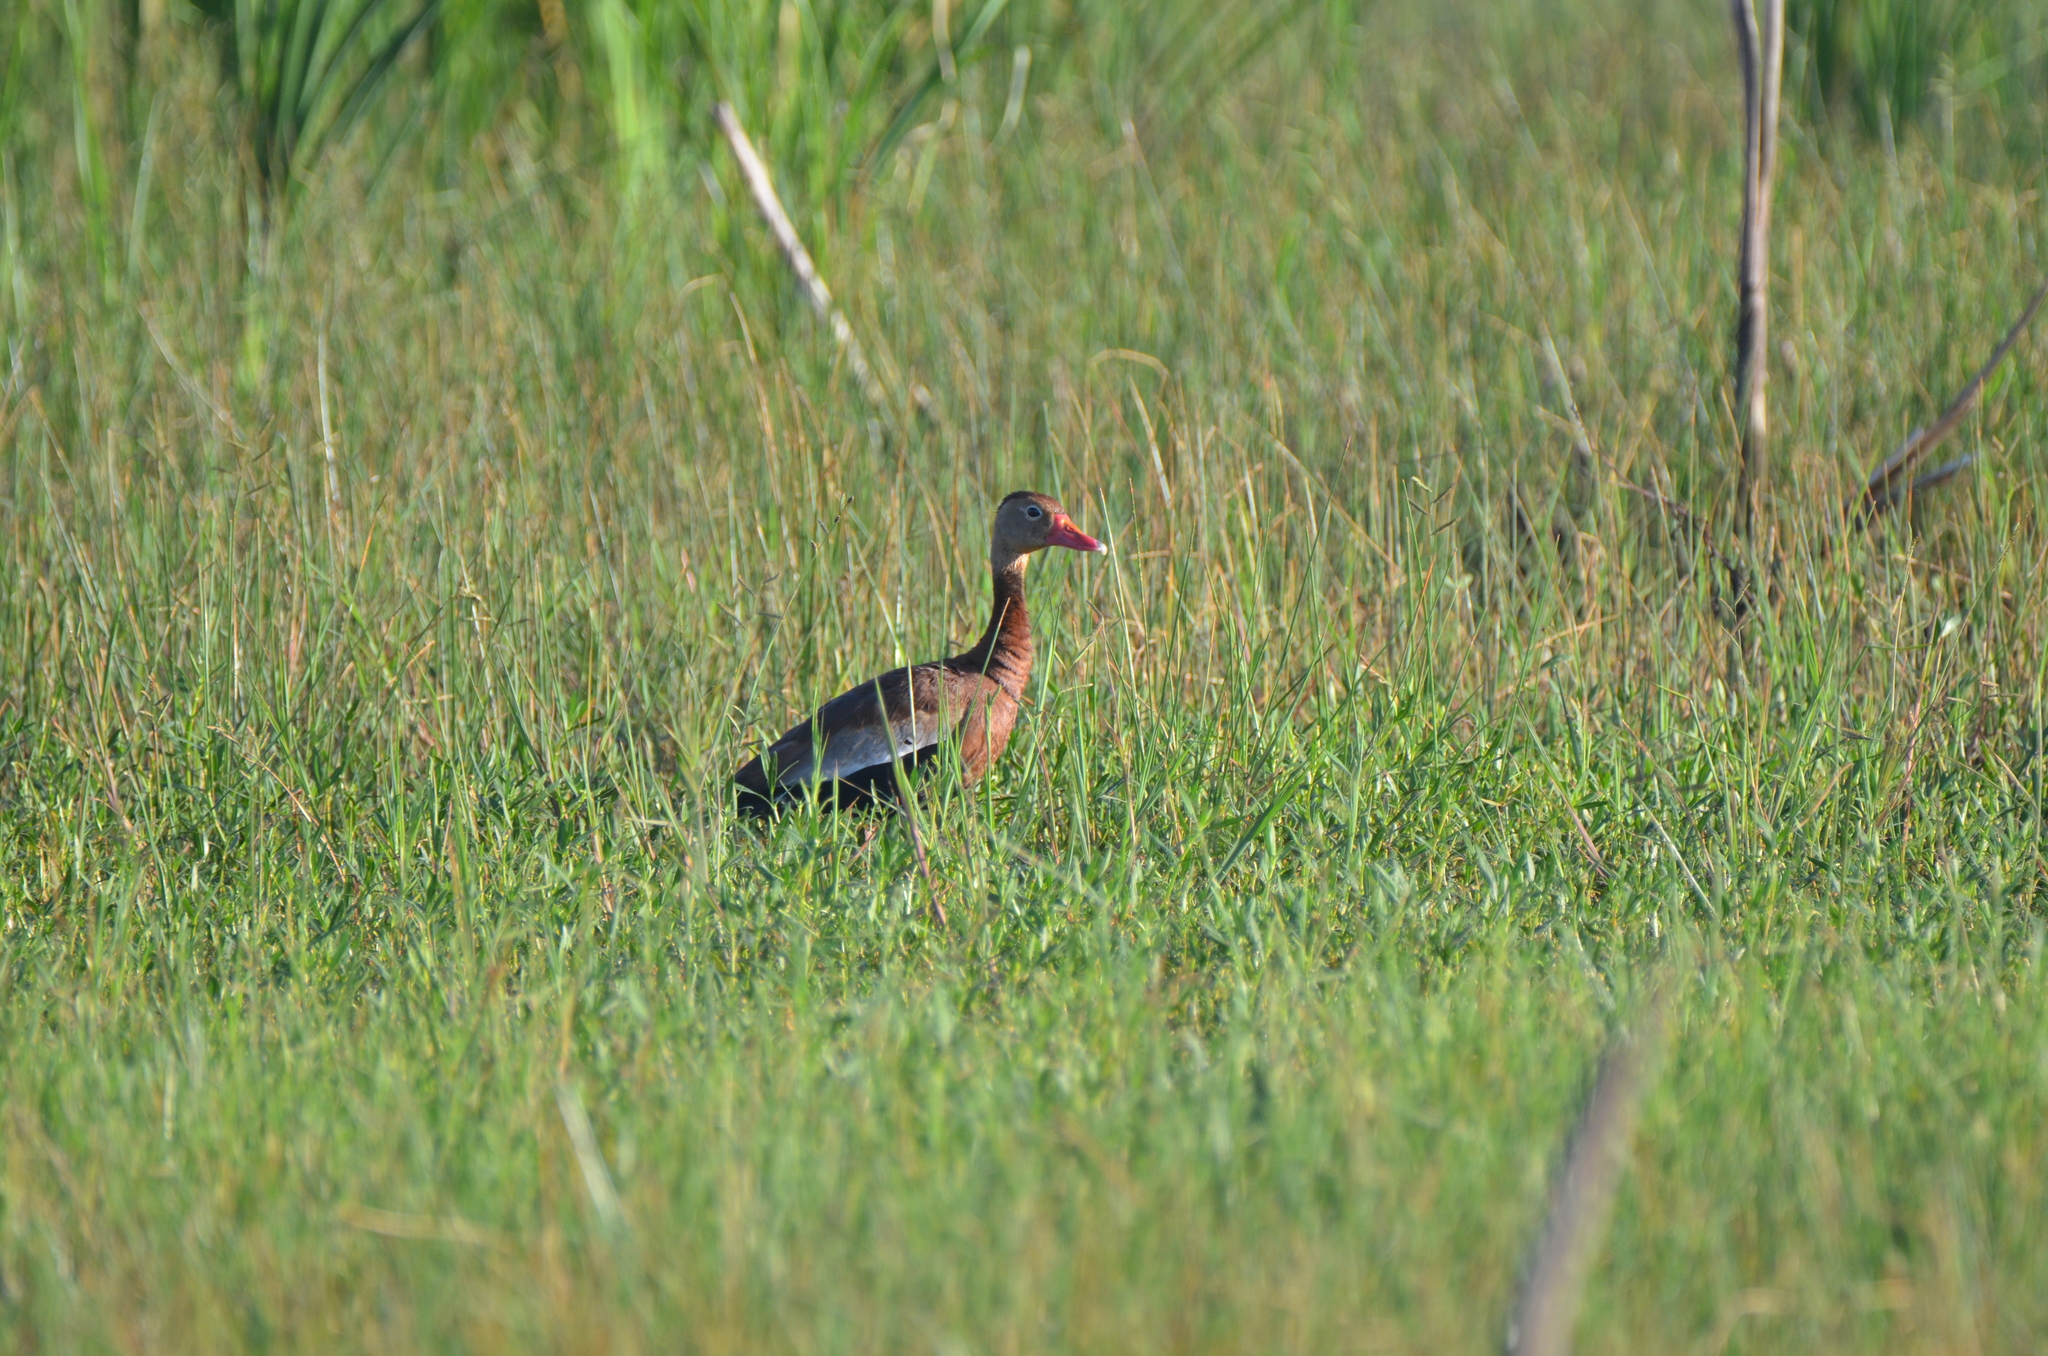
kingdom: Animalia
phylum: Chordata
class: Aves
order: Anseriformes
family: Anatidae
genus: Dendrocygna
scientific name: Dendrocygna autumnalis
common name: Black-bellied whistling duck
